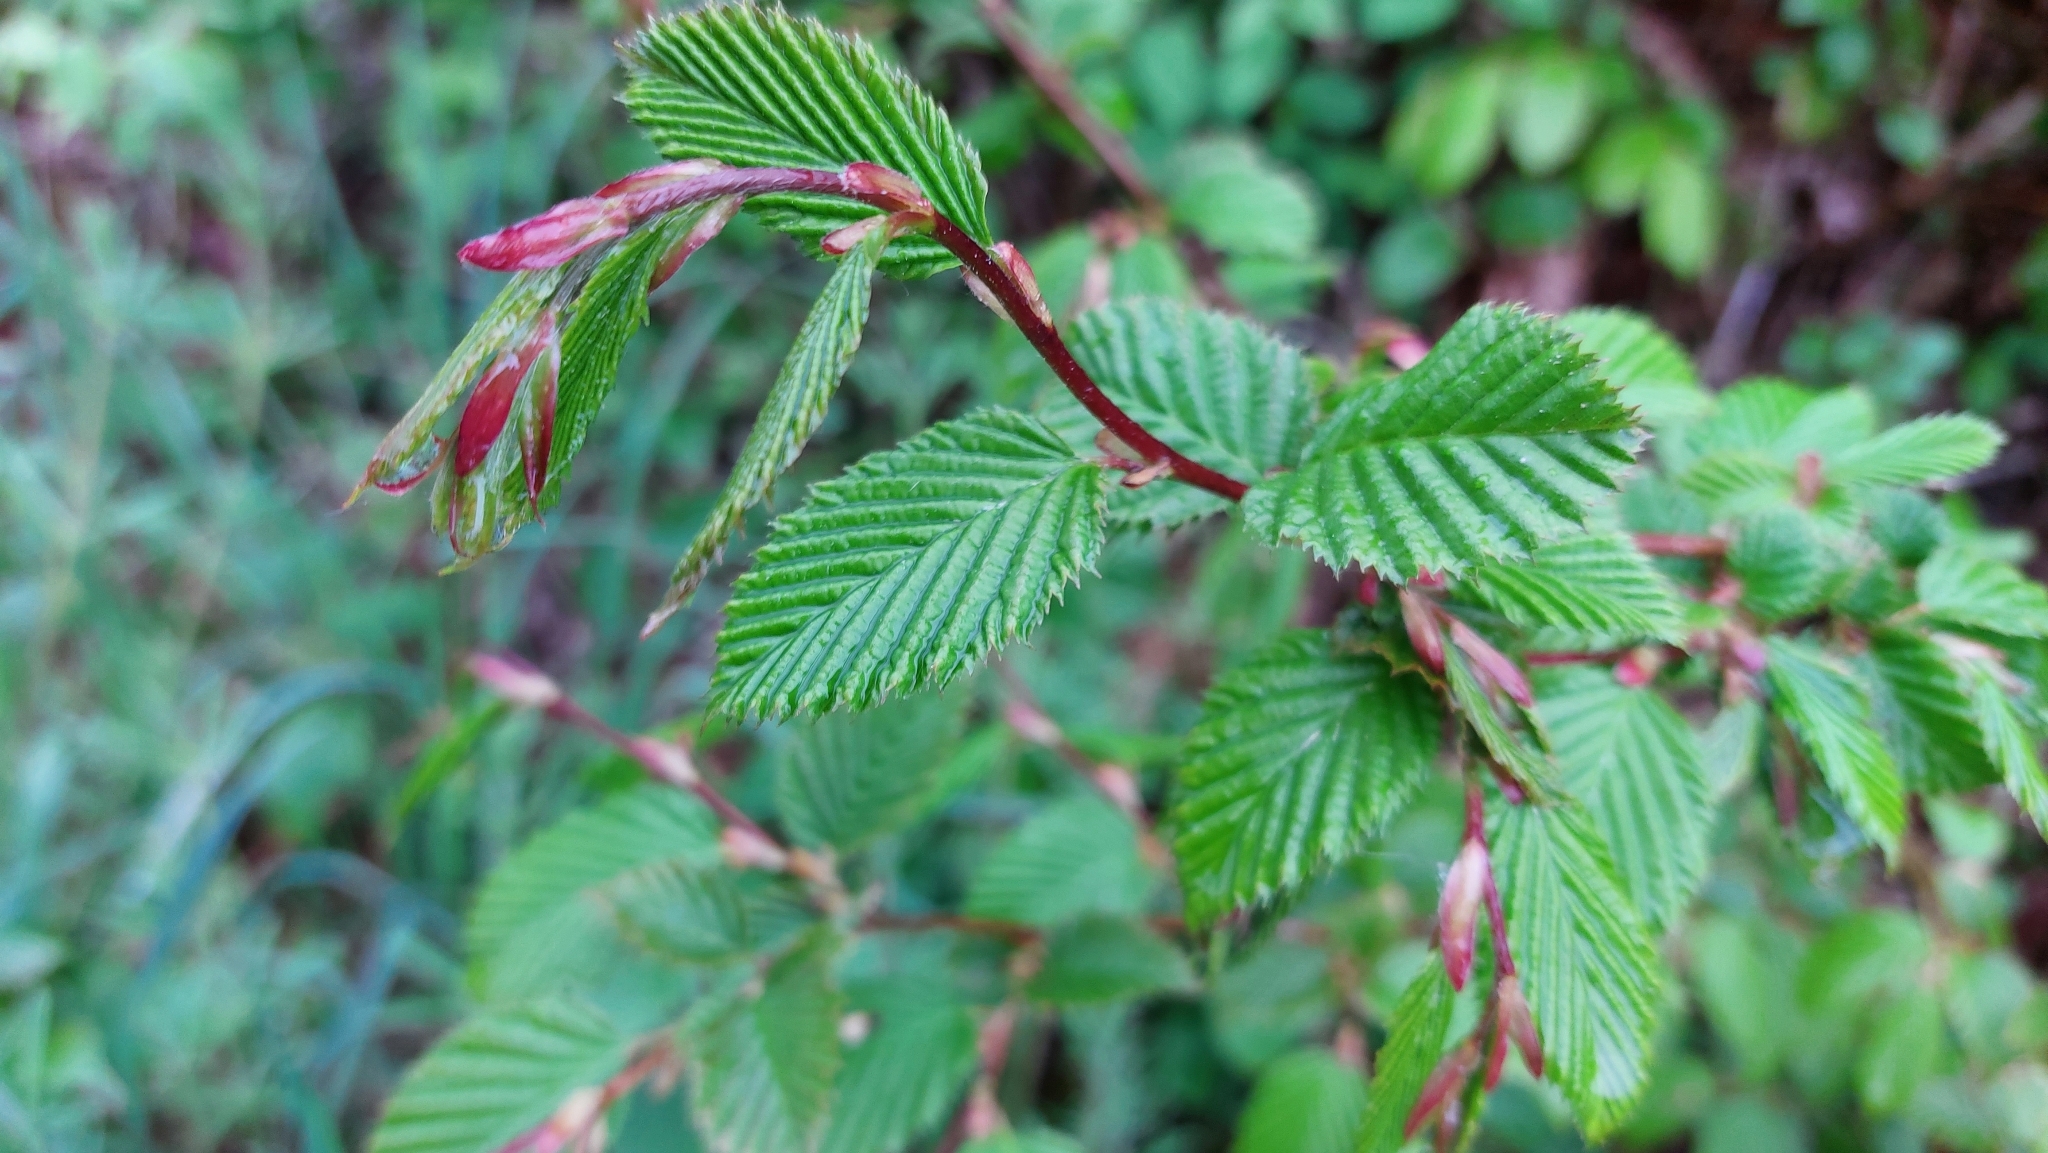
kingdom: Plantae
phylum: Tracheophyta
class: Magnoliopsida
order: Fagales
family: Betulaceae
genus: Carpinus
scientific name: Carpinus betulus
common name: Hornbeam
